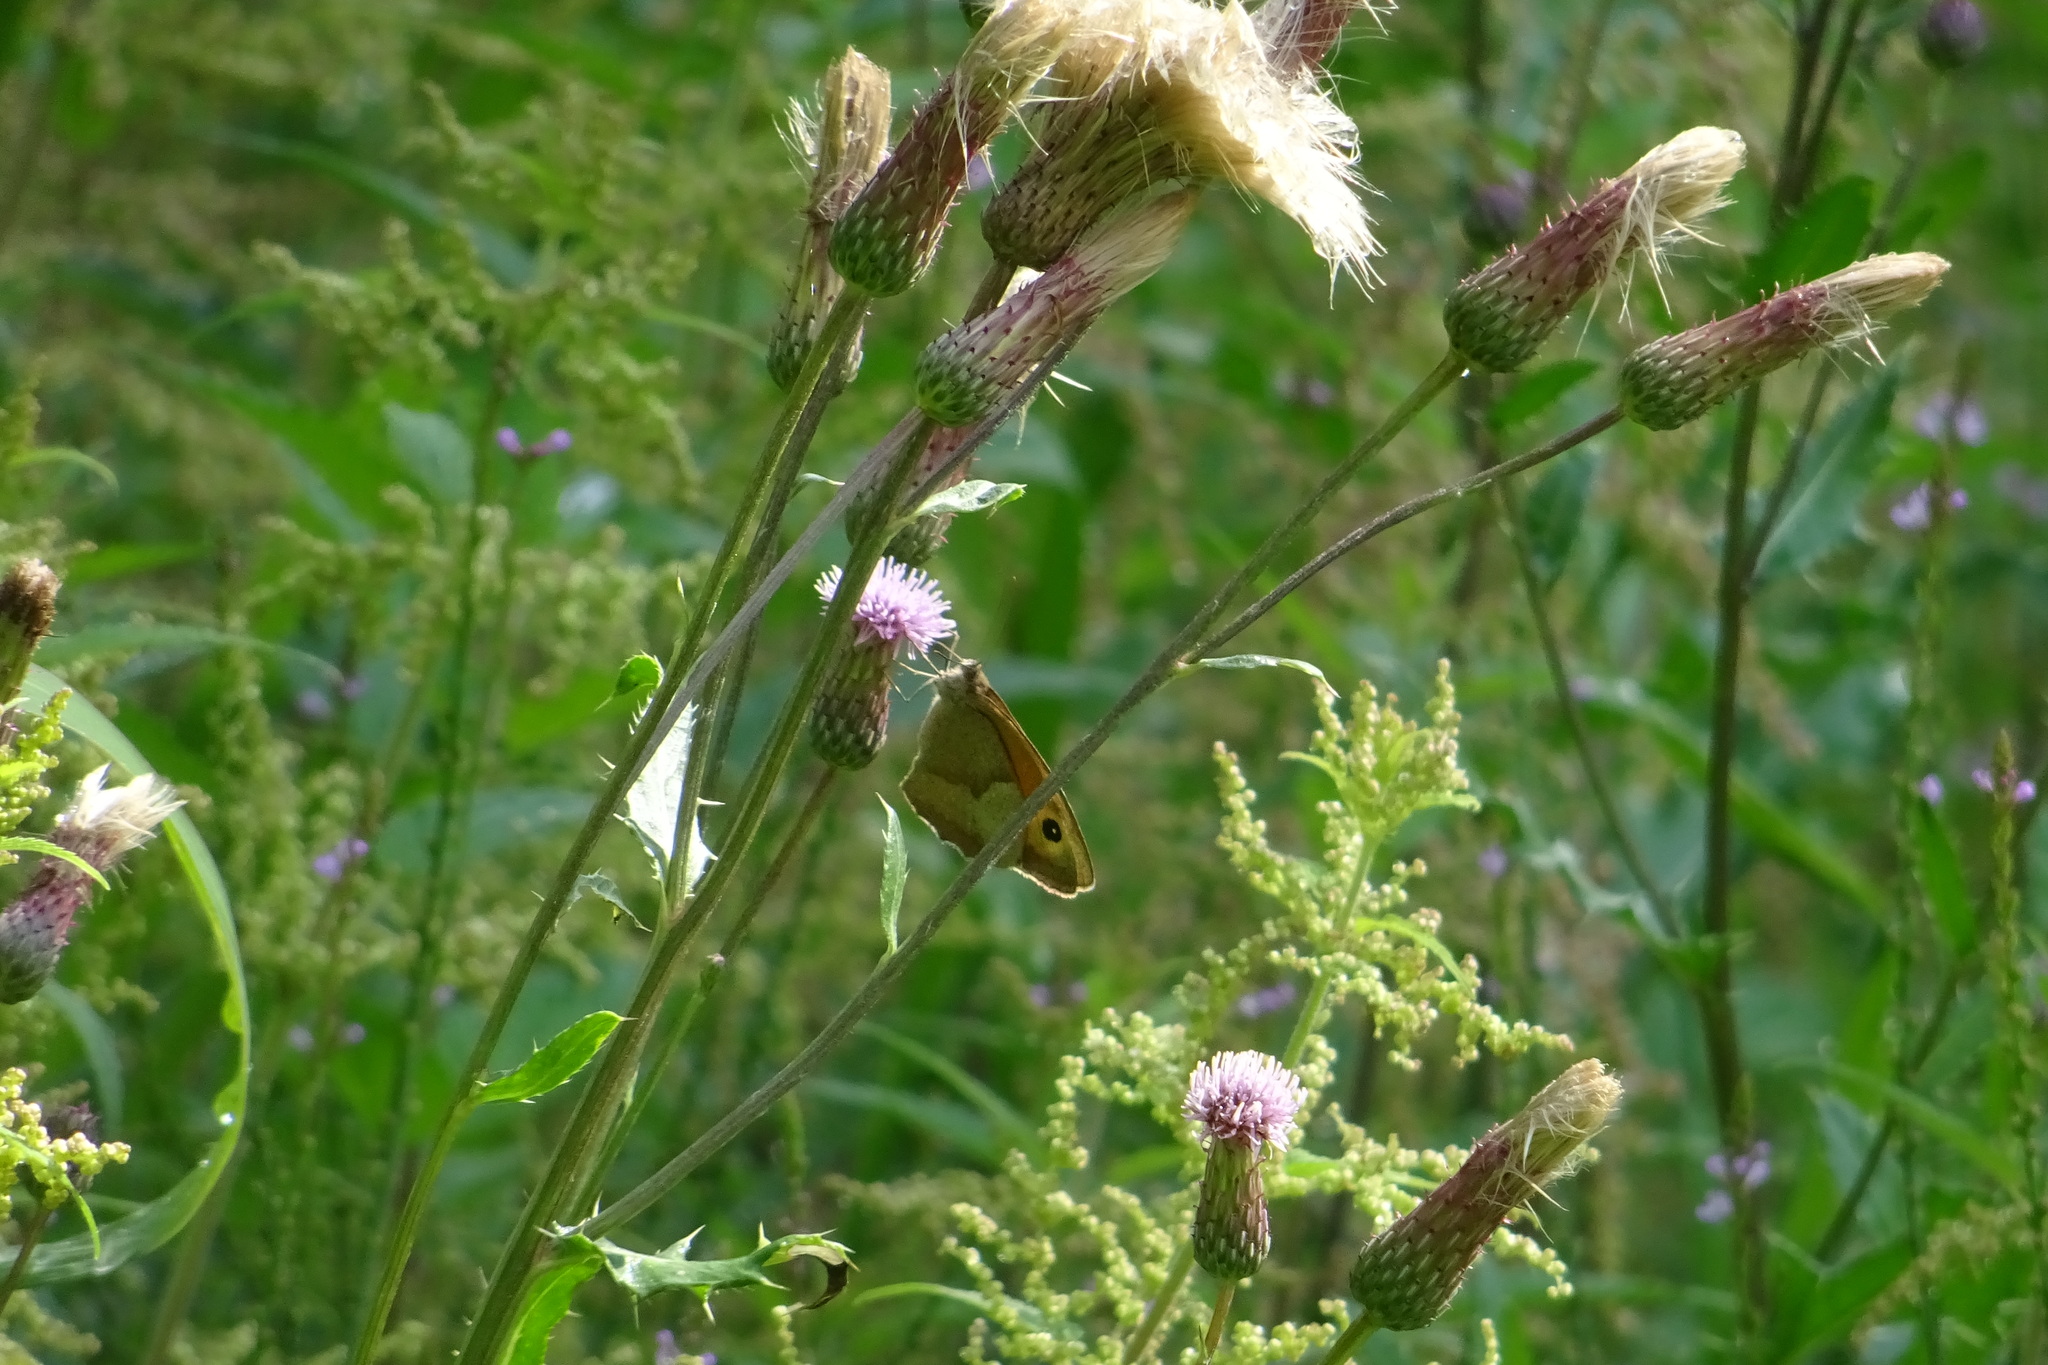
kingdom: Animalia
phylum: Arthropoda
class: Insecta
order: Lepidoptera
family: Nymphalidae
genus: Maniola
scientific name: Maniola jurtina
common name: Meadow brown
